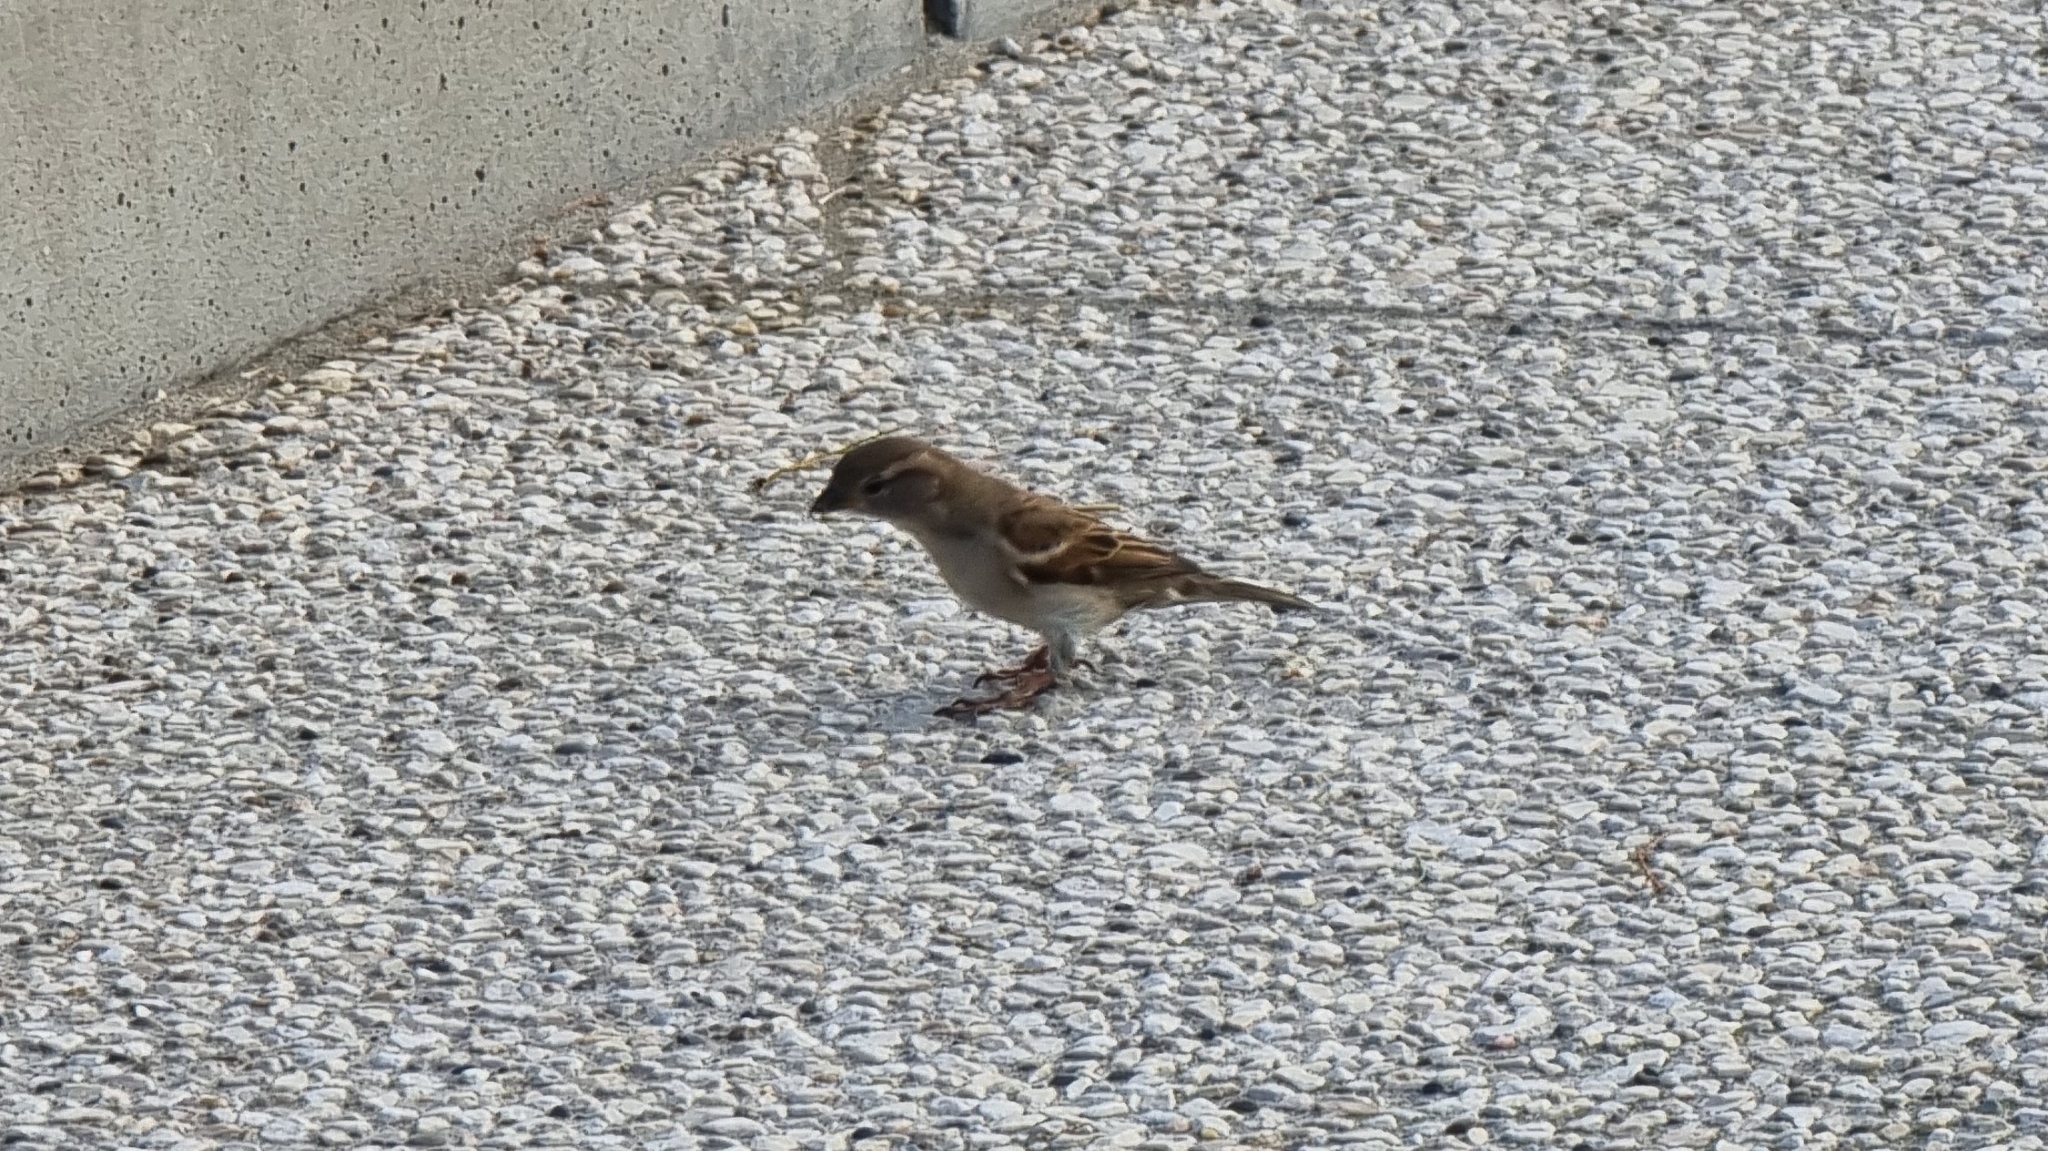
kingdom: Animalia
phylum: Chordata
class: Aves
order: Passeriformes
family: Passeridae
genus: Passer
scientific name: Passer domesticus
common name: House sparrow
